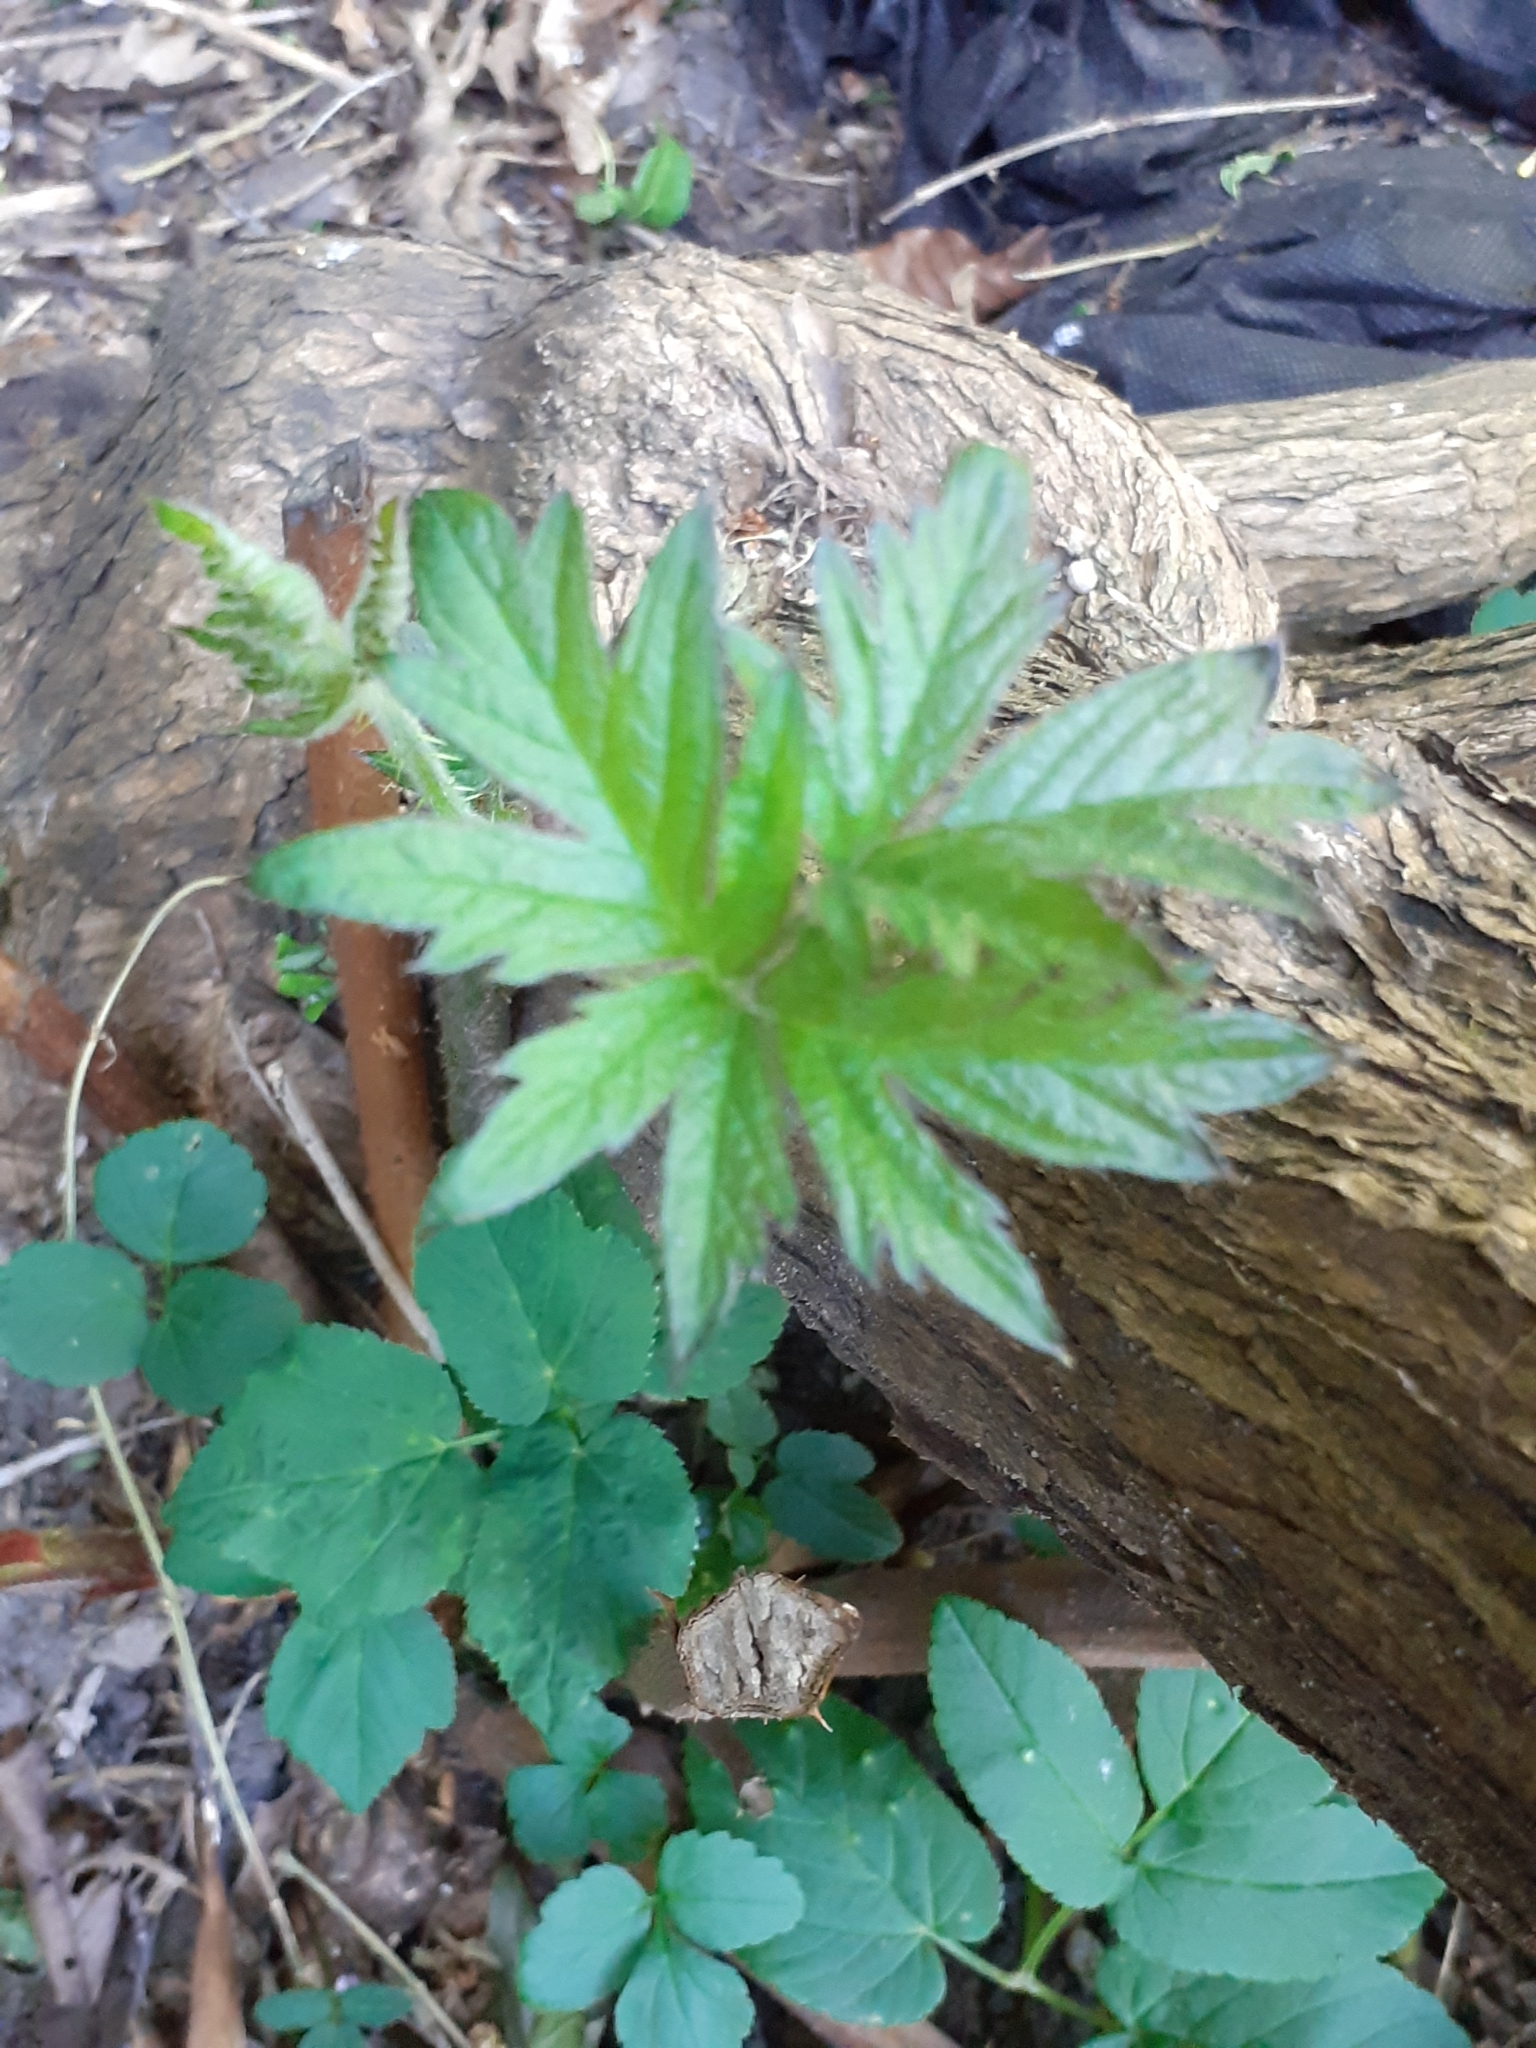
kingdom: Plantae
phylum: Tracheophyta
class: Magnoliopsida
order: Rosales
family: Rosaceae
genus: Rubus
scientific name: Rubus laciniatus
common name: Evergreen blackberry
